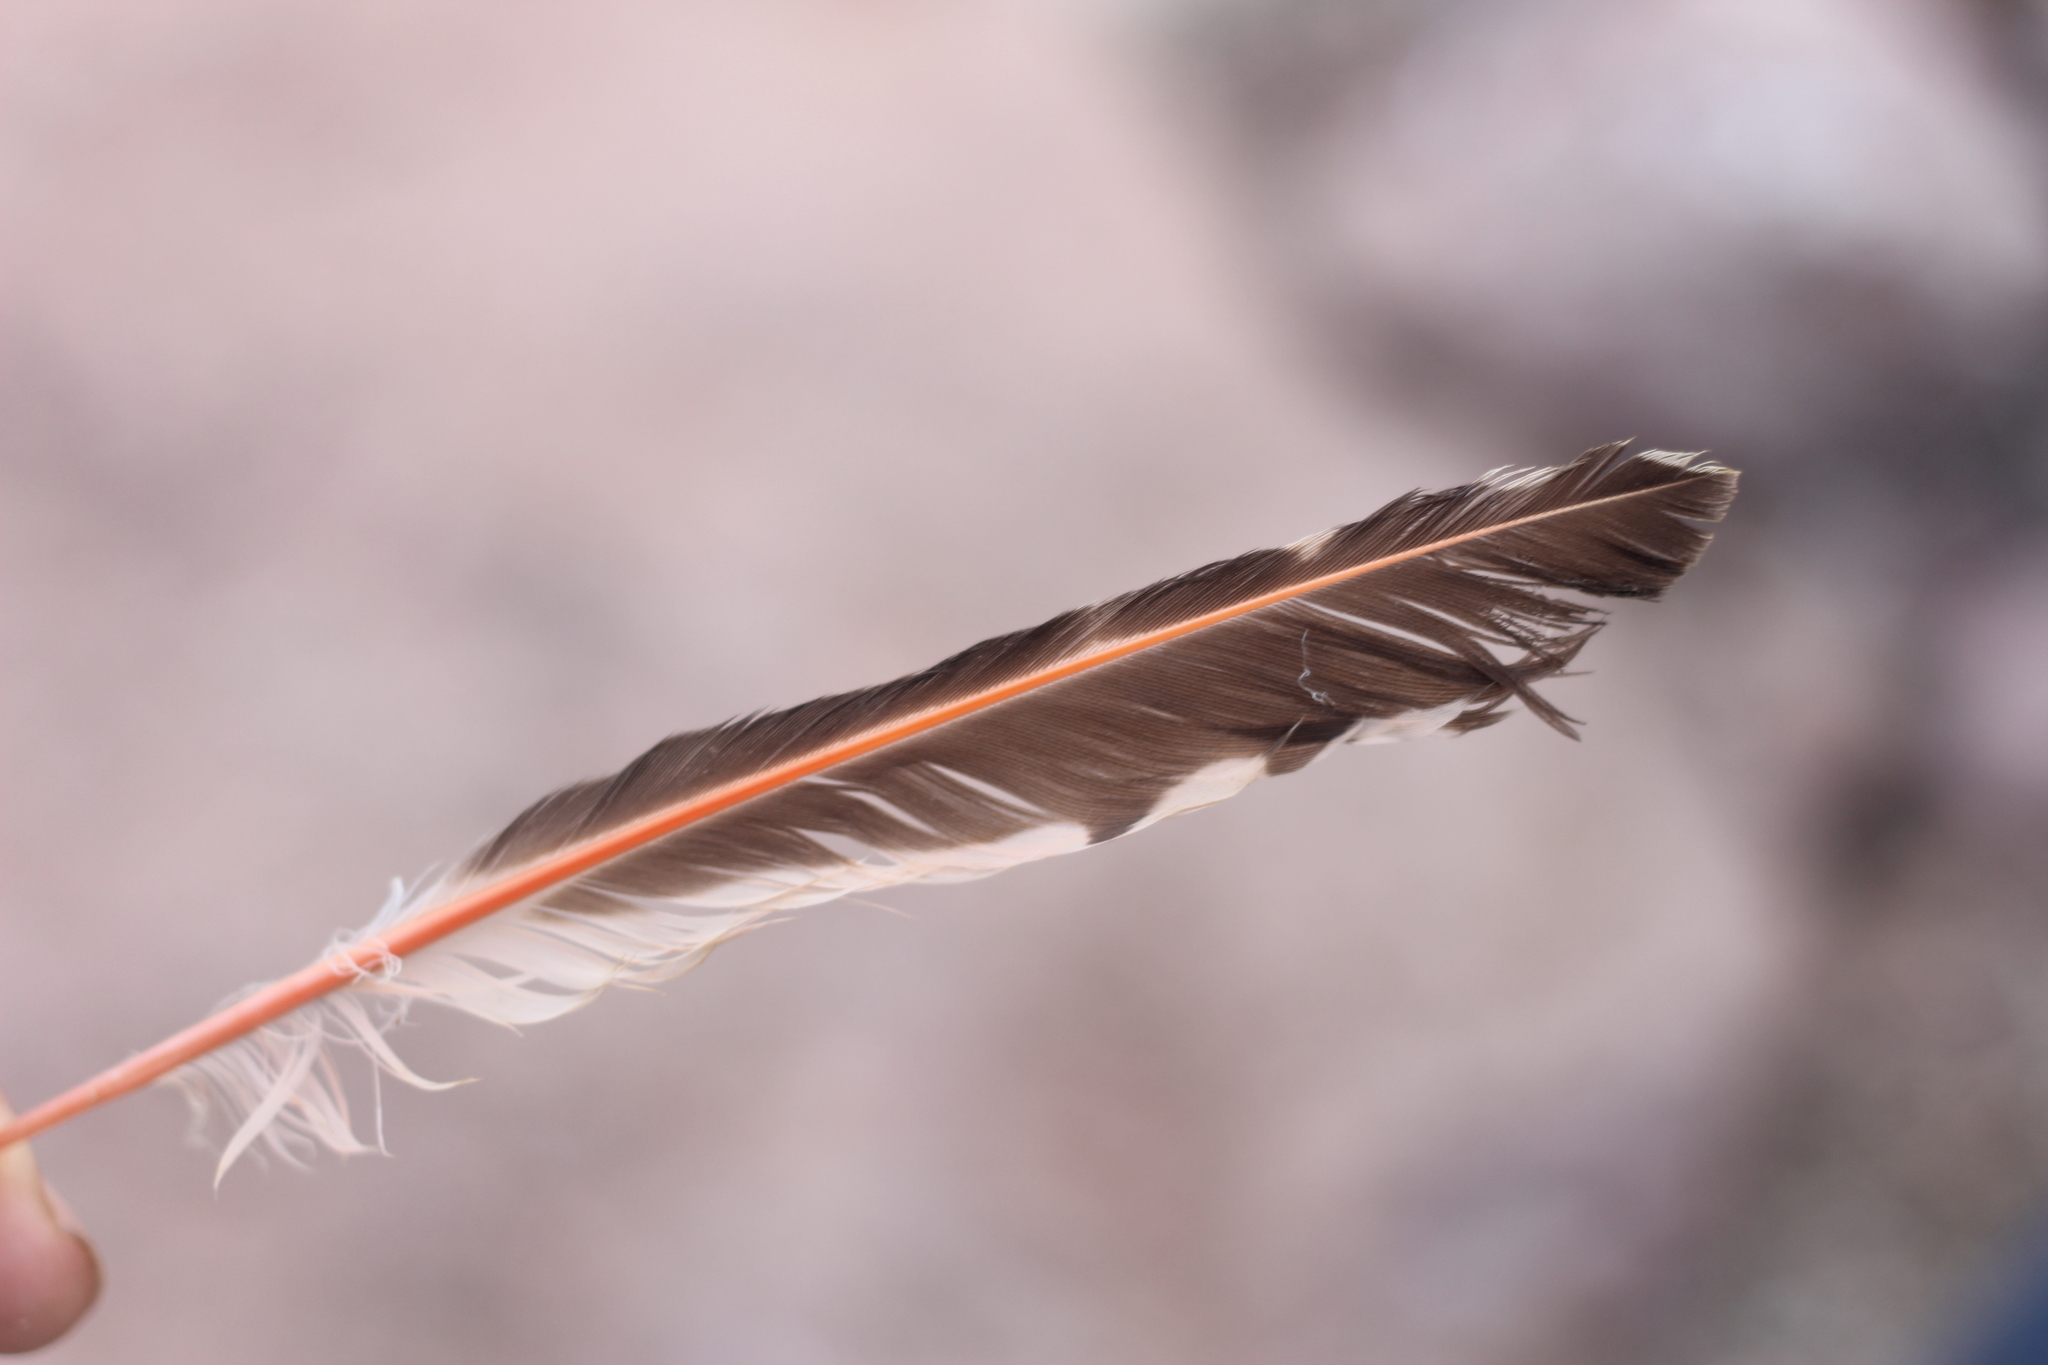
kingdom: Animalia
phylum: Chordata
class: Aves
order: Piciformes
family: Picidae
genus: Colaptes
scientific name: Colaptes auratus
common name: Northern flicker
